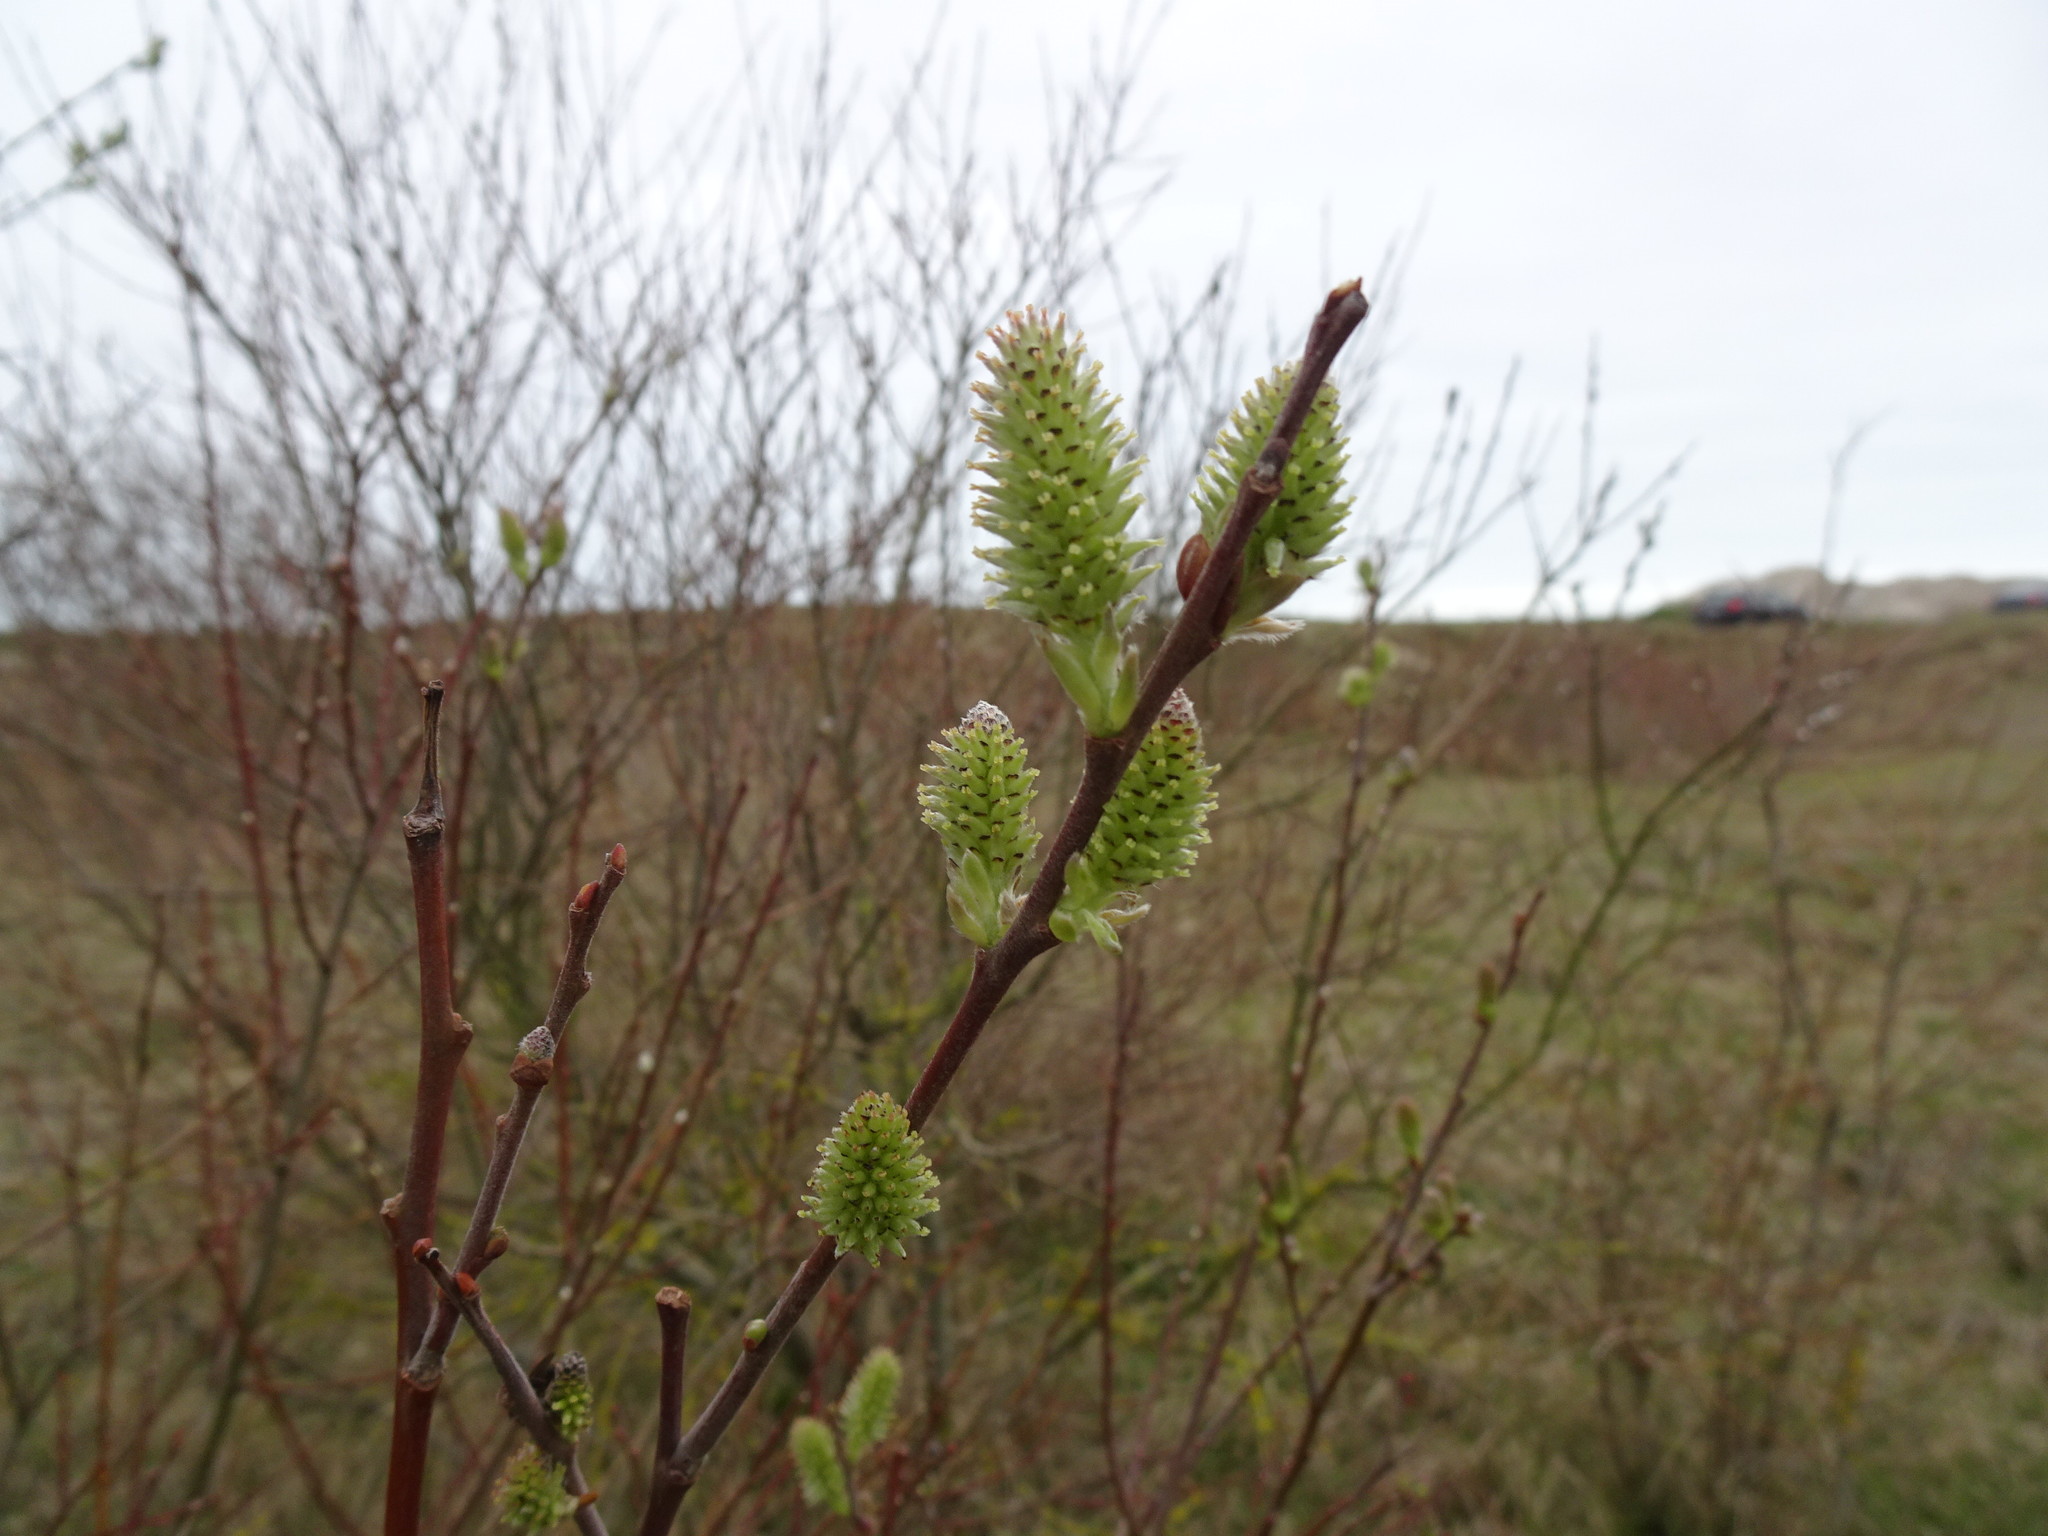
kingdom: Plantae
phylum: Tracheophyta
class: Magnoliopsida
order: Malpighiales
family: Salicaceae
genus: Salix
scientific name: Salix repens
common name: Creeping willow
